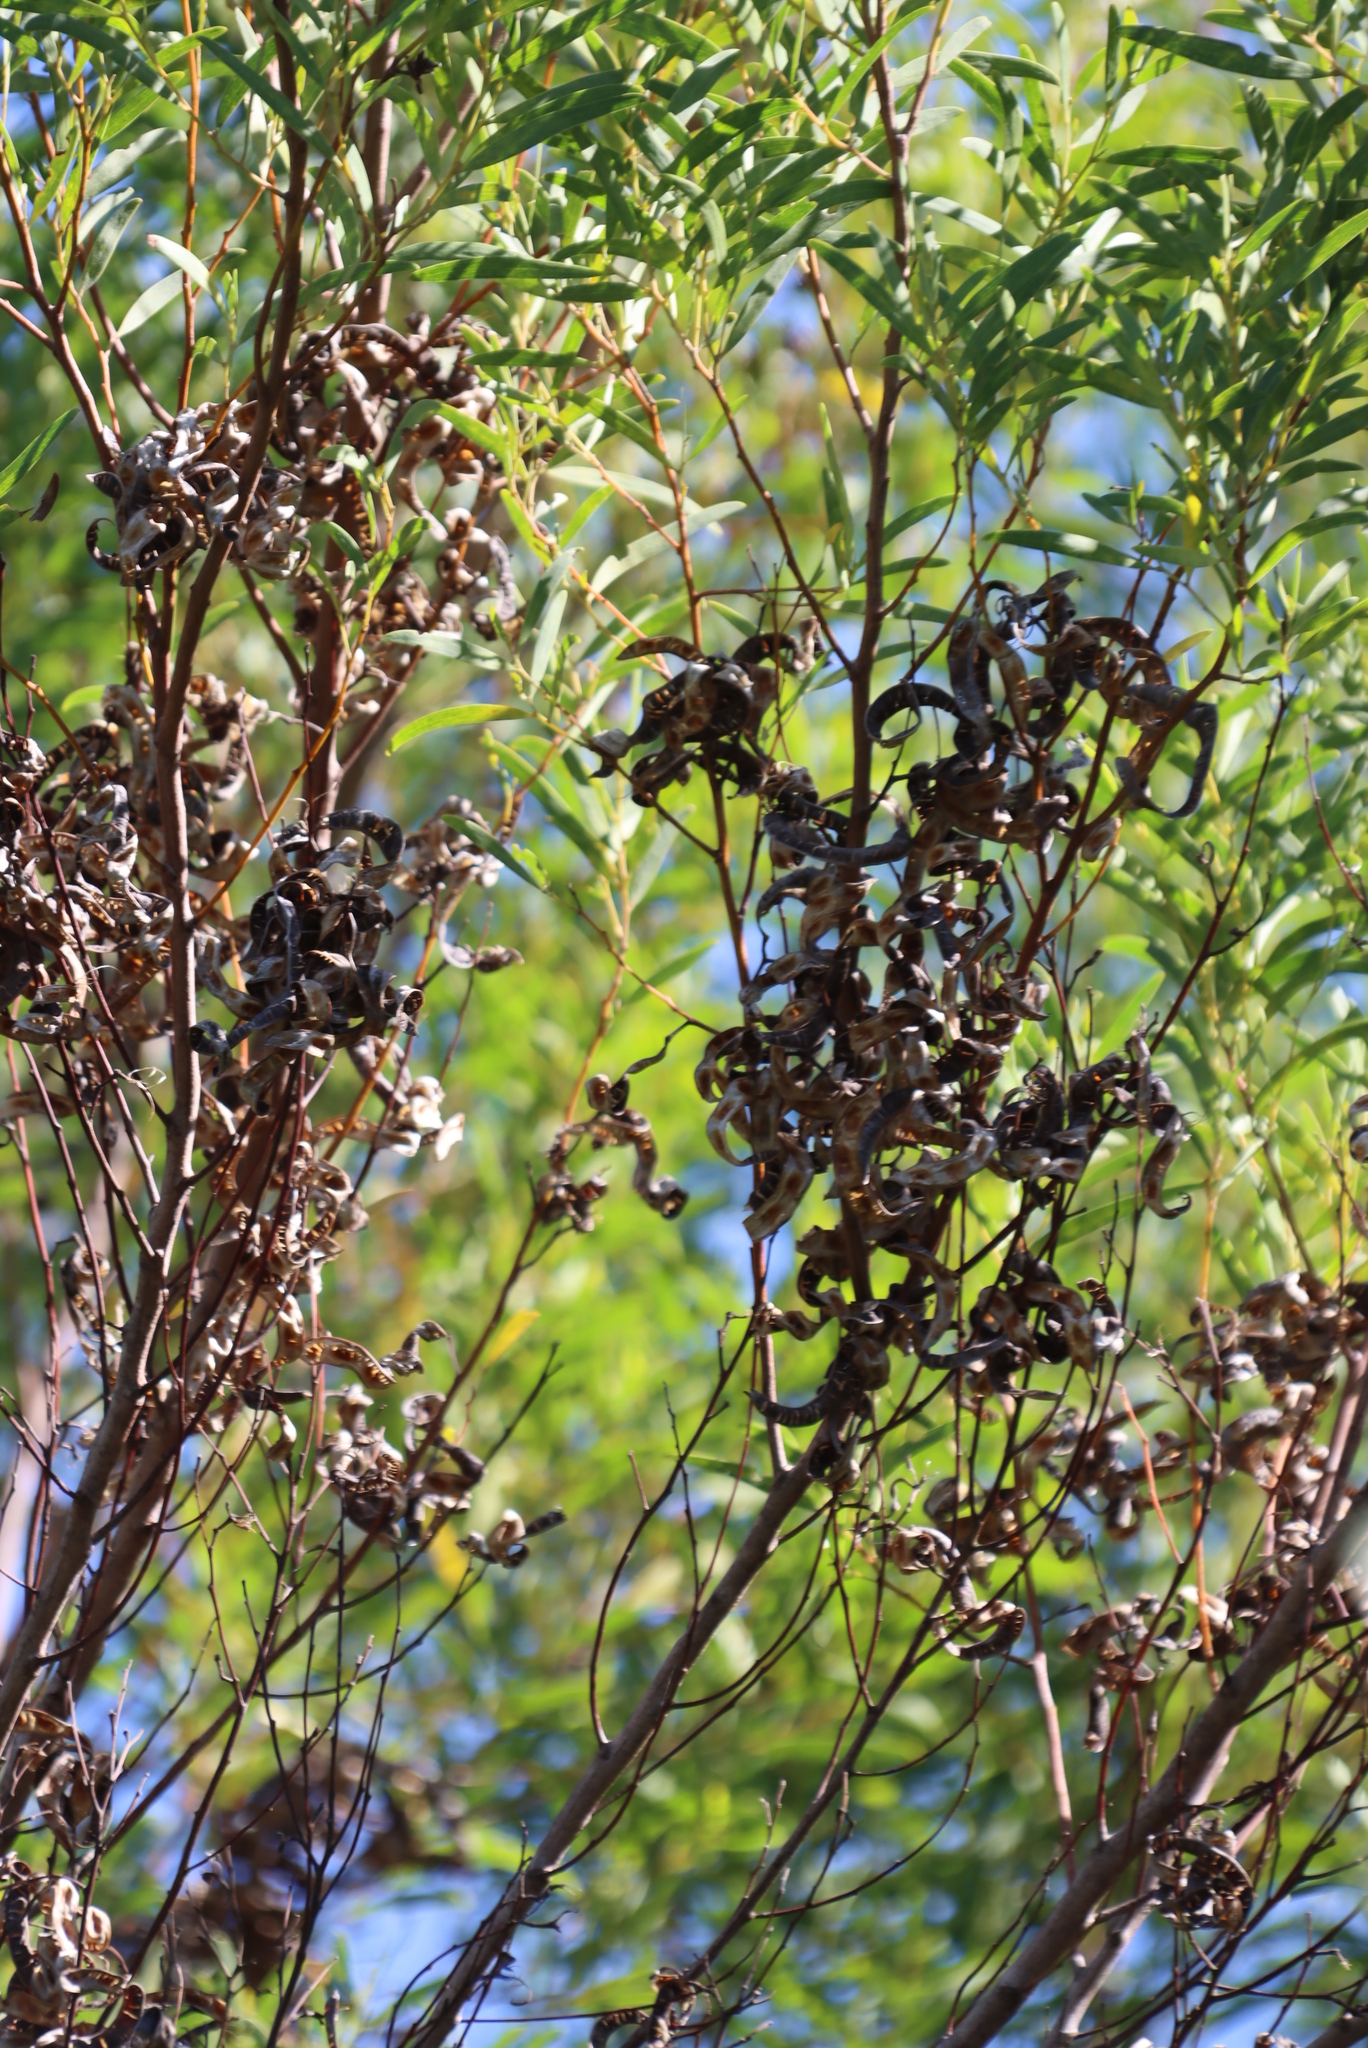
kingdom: Plantae
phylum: Tracheophyta
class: Magnoliopsida
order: Fabales
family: Fabaceae
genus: Acacia
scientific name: Acacia cyclops
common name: Coastal wattle
